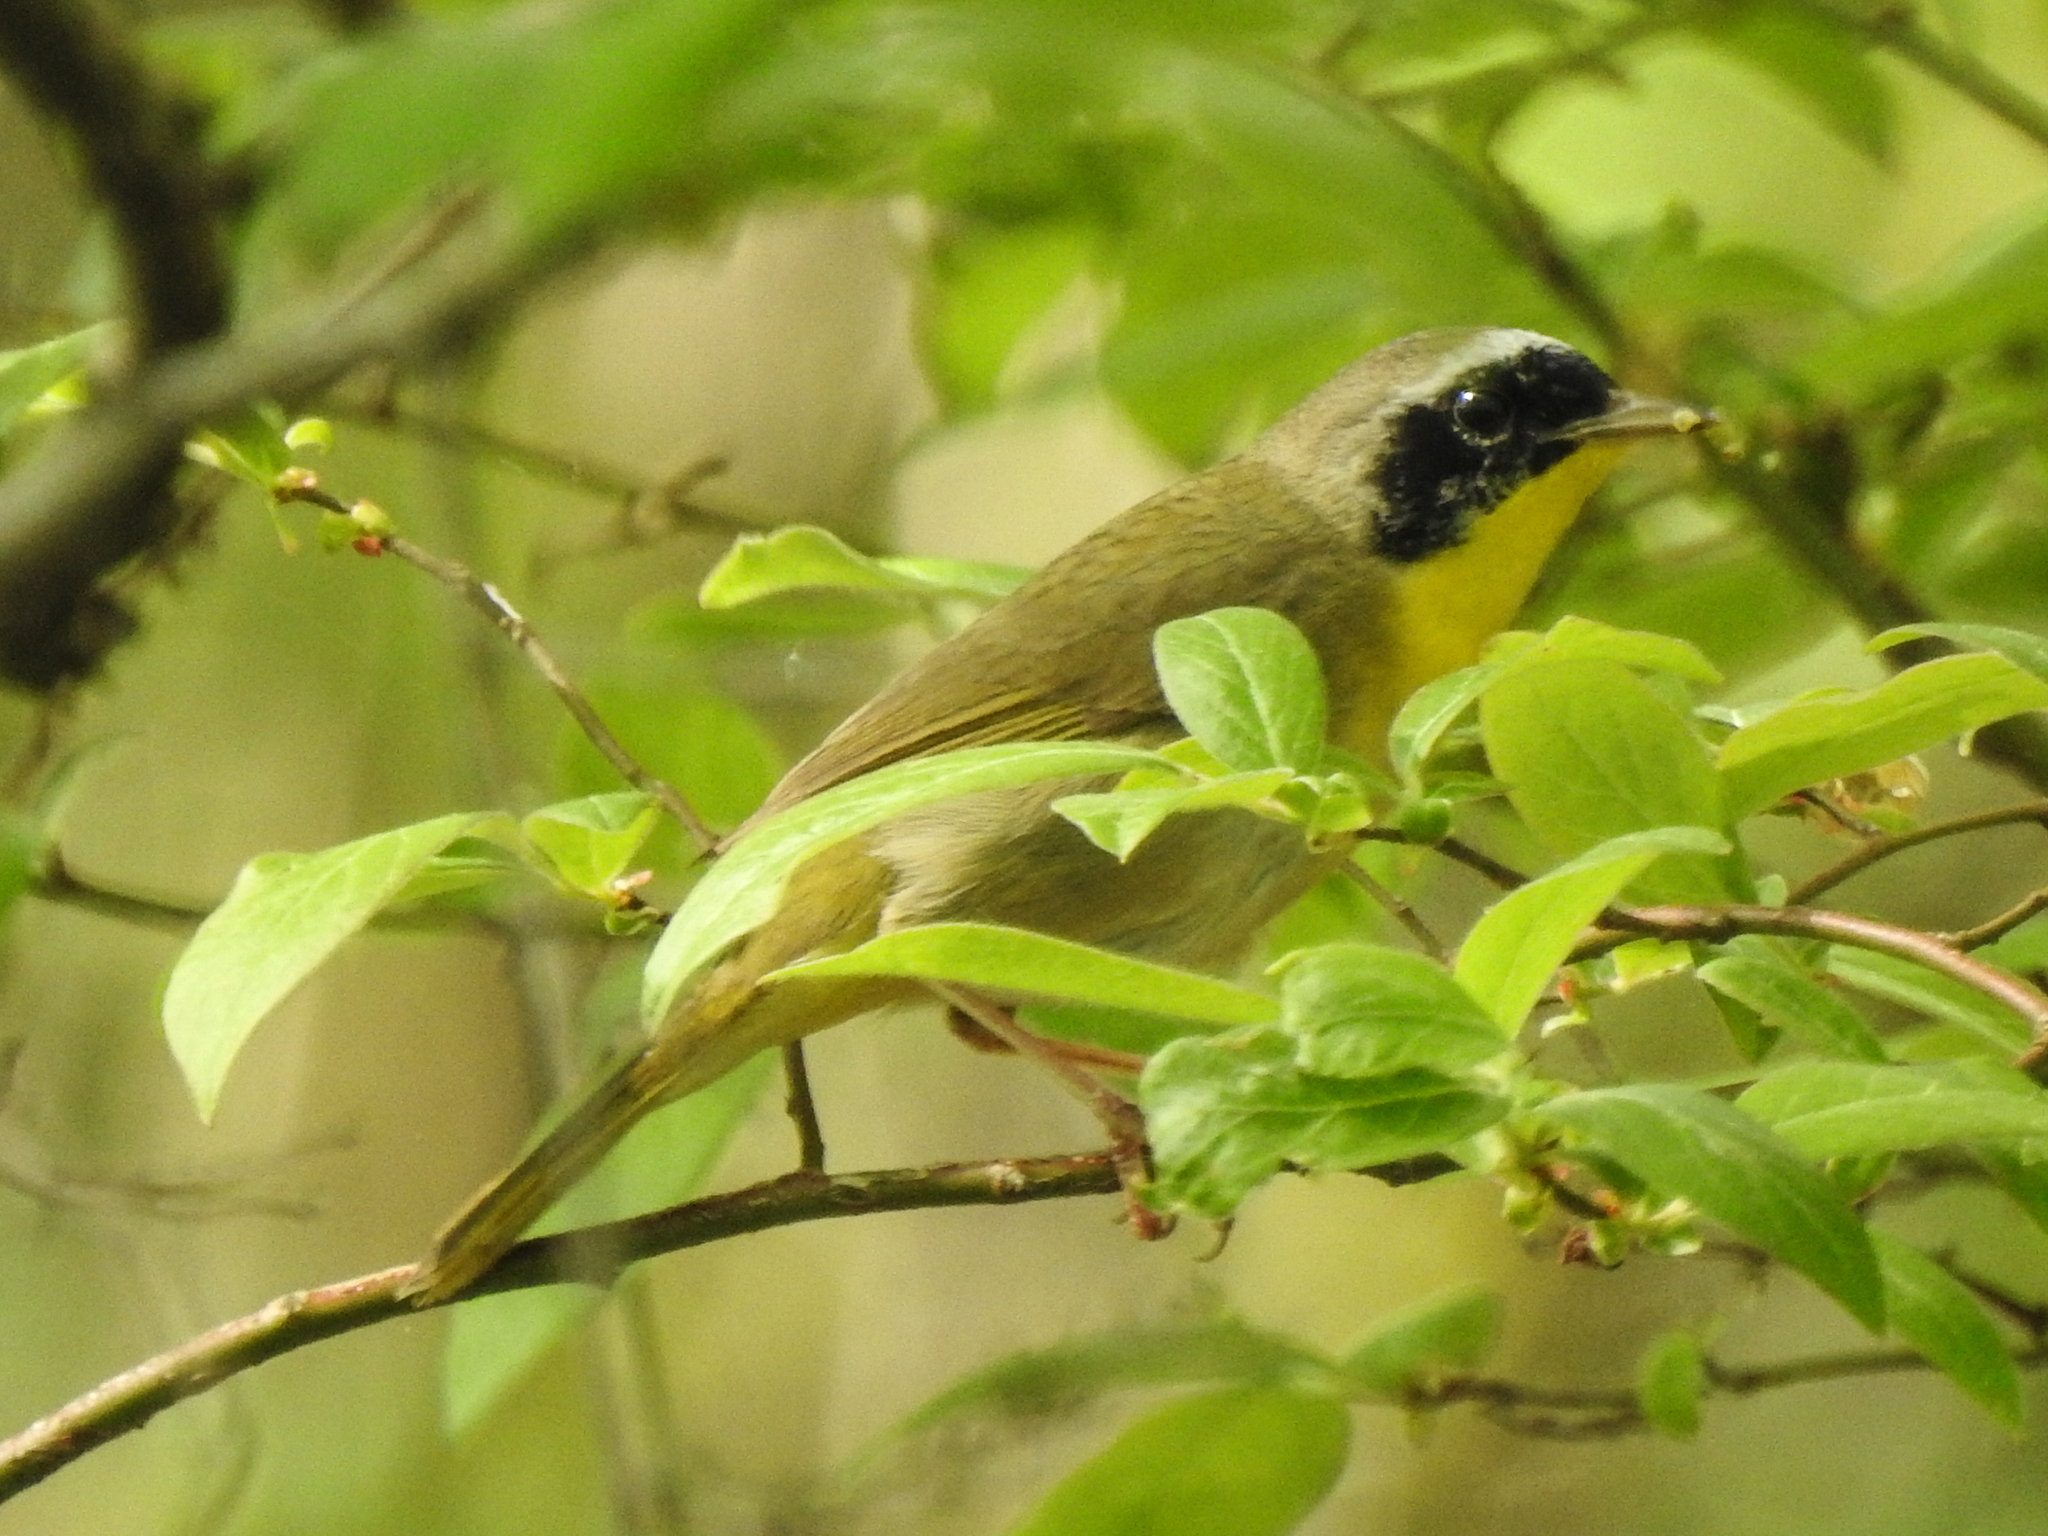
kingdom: Animalia
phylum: Chordata
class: Aves
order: Passeriformes
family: Parulidae
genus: Geothlypis
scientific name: Geothlypis trichas
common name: Common yellowthroat
